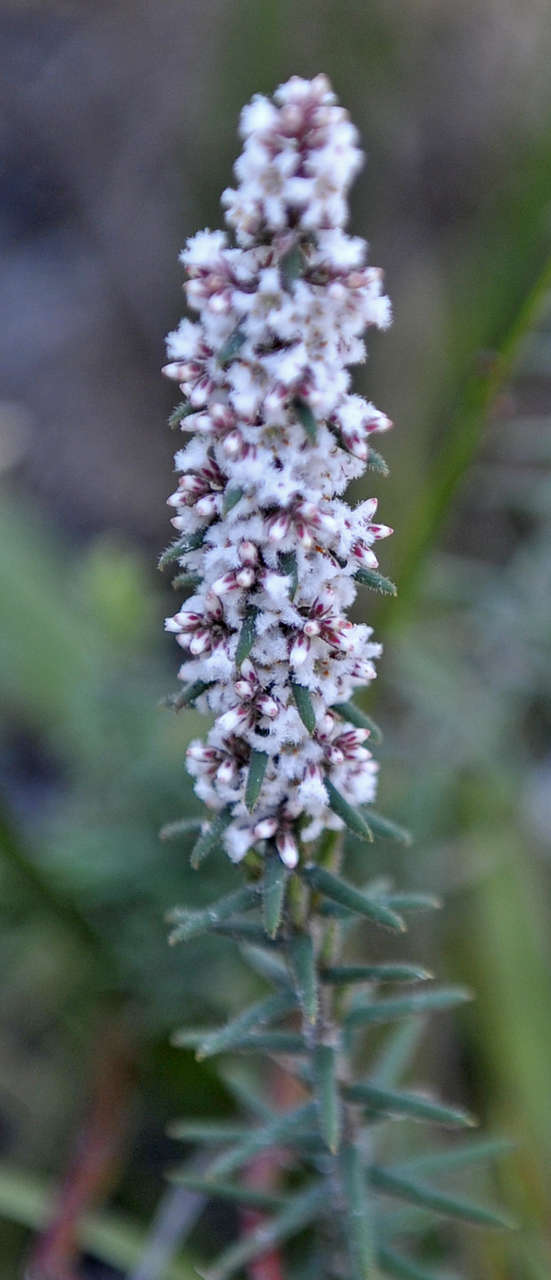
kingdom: Plantae
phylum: Tracheophyta
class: Magnoliopsida
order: Ericales
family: Ericaceae
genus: Leucopogon
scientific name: Leucopogon thymifolius
